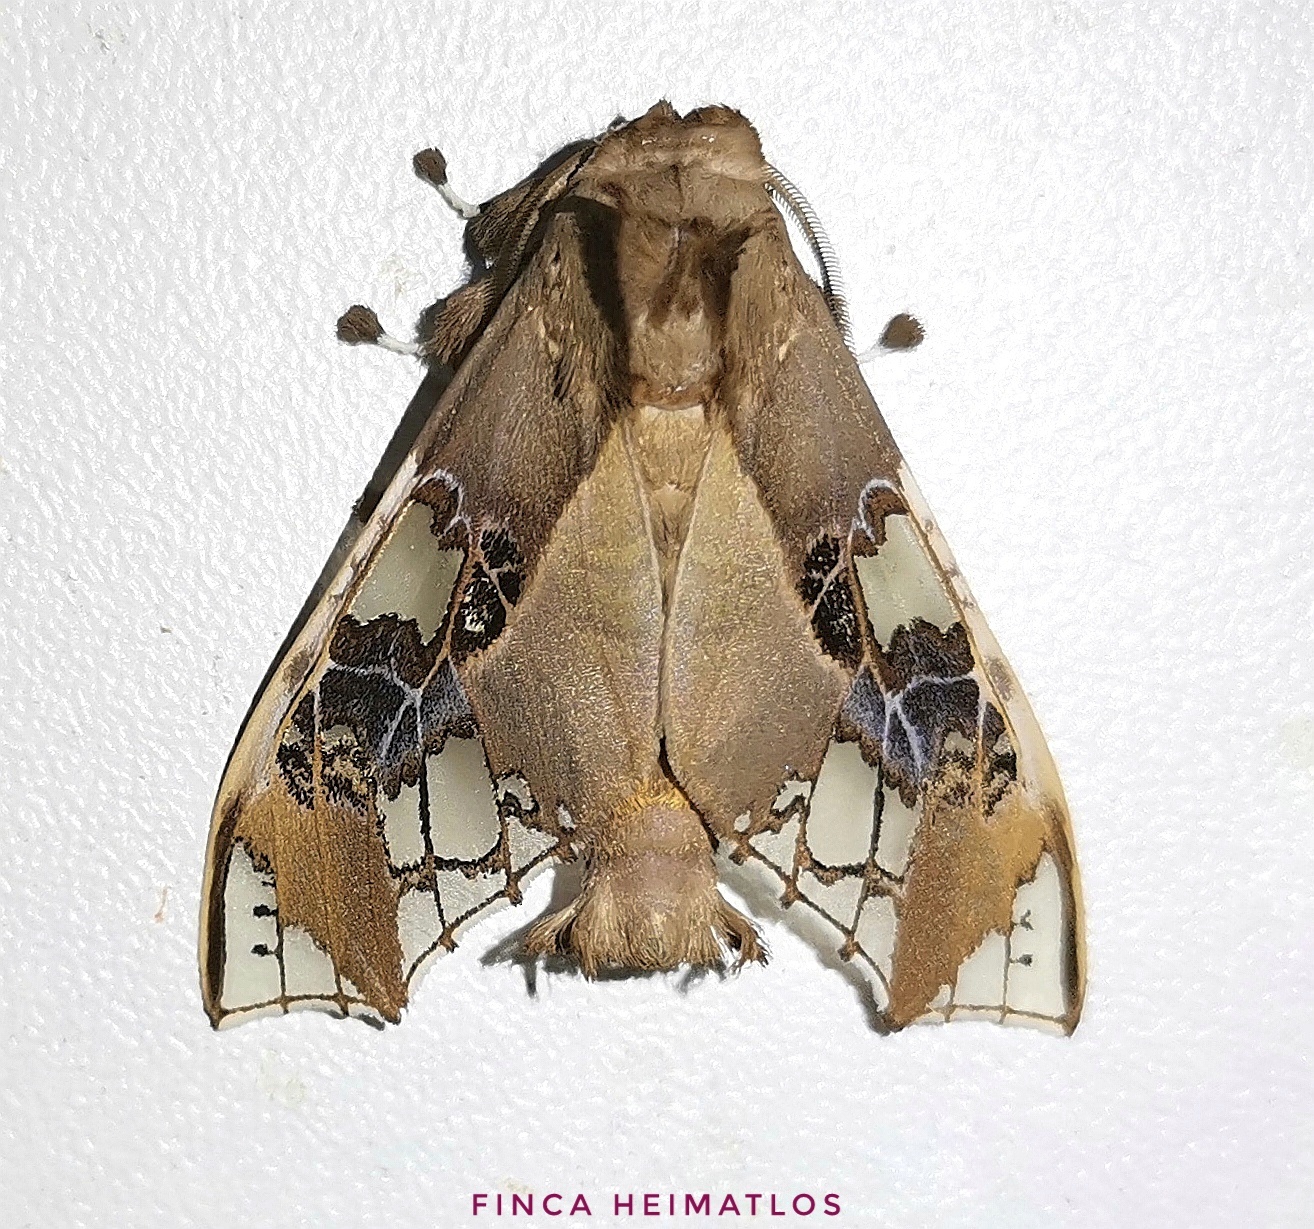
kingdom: Animalia
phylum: Arthropoda
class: Insecta
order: Lepidoptera
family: Erebidae
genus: Parathyris
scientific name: Parathyris cedonulli
